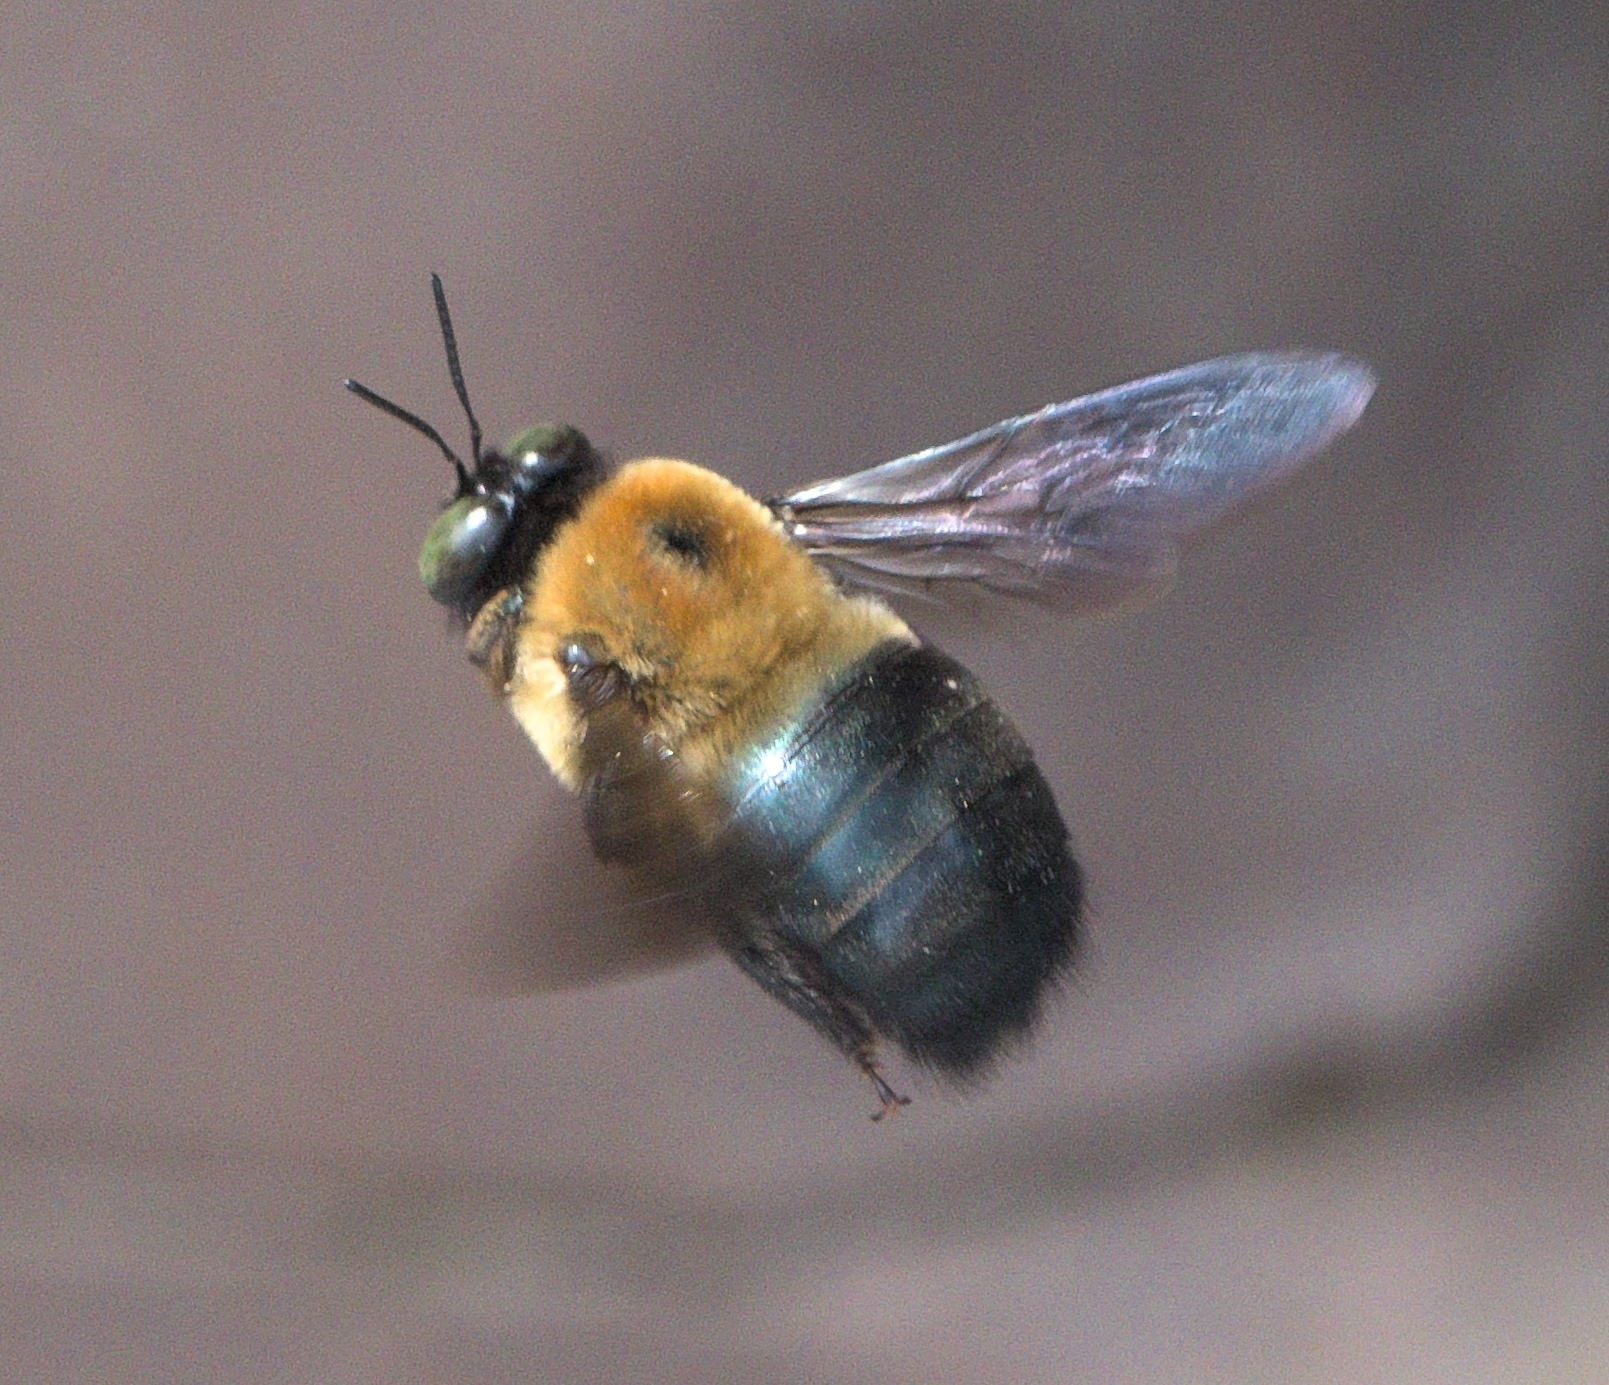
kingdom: Animalia
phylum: Arthropoda
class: Insecta
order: Hymenoptera
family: Apidae
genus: Xylocopa
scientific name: Xylocopa virginica
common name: Carpenter bee
